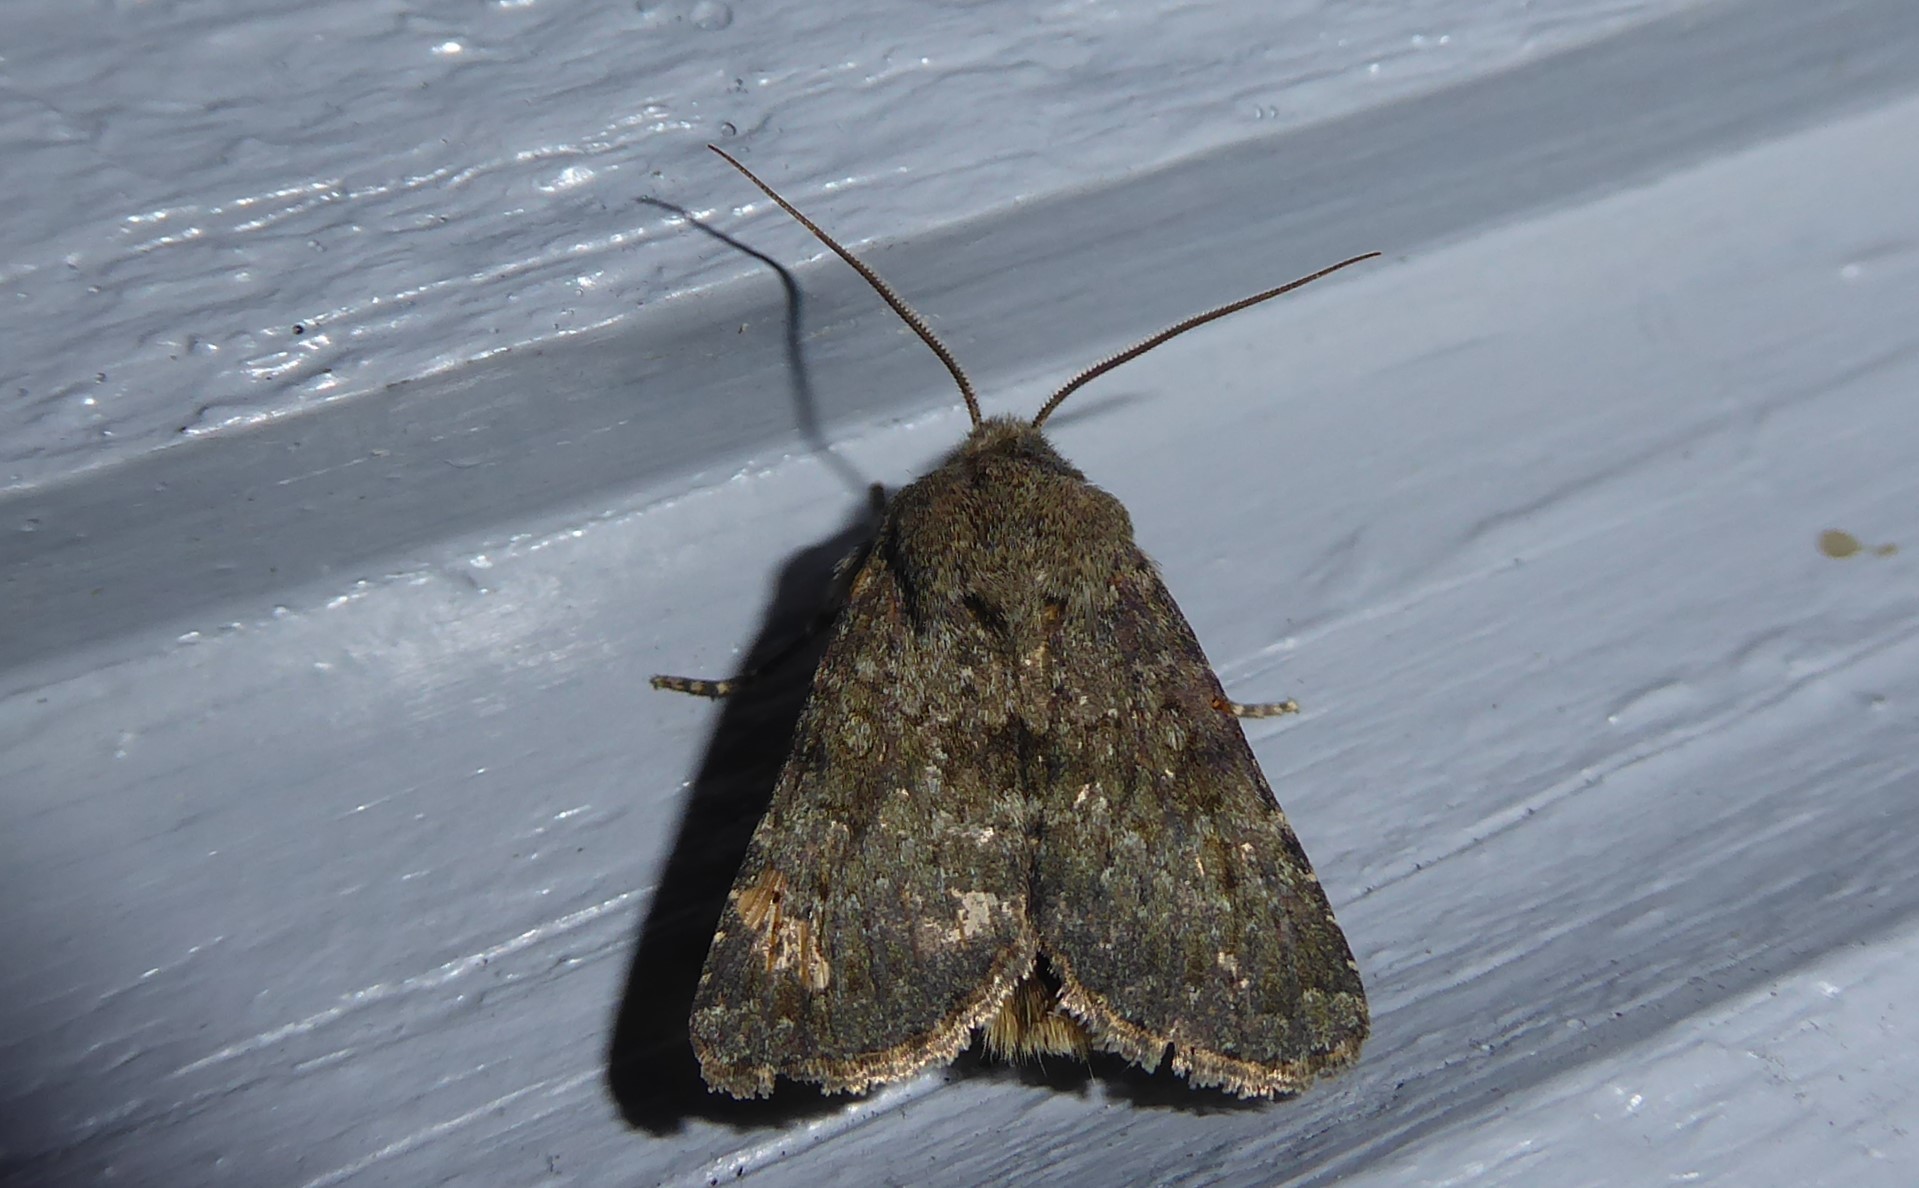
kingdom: Animalia
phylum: Arthropoda
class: Insecta
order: Lepidoptera
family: Noctuidae
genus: Ichneutica
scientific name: Ichneutica moderata
